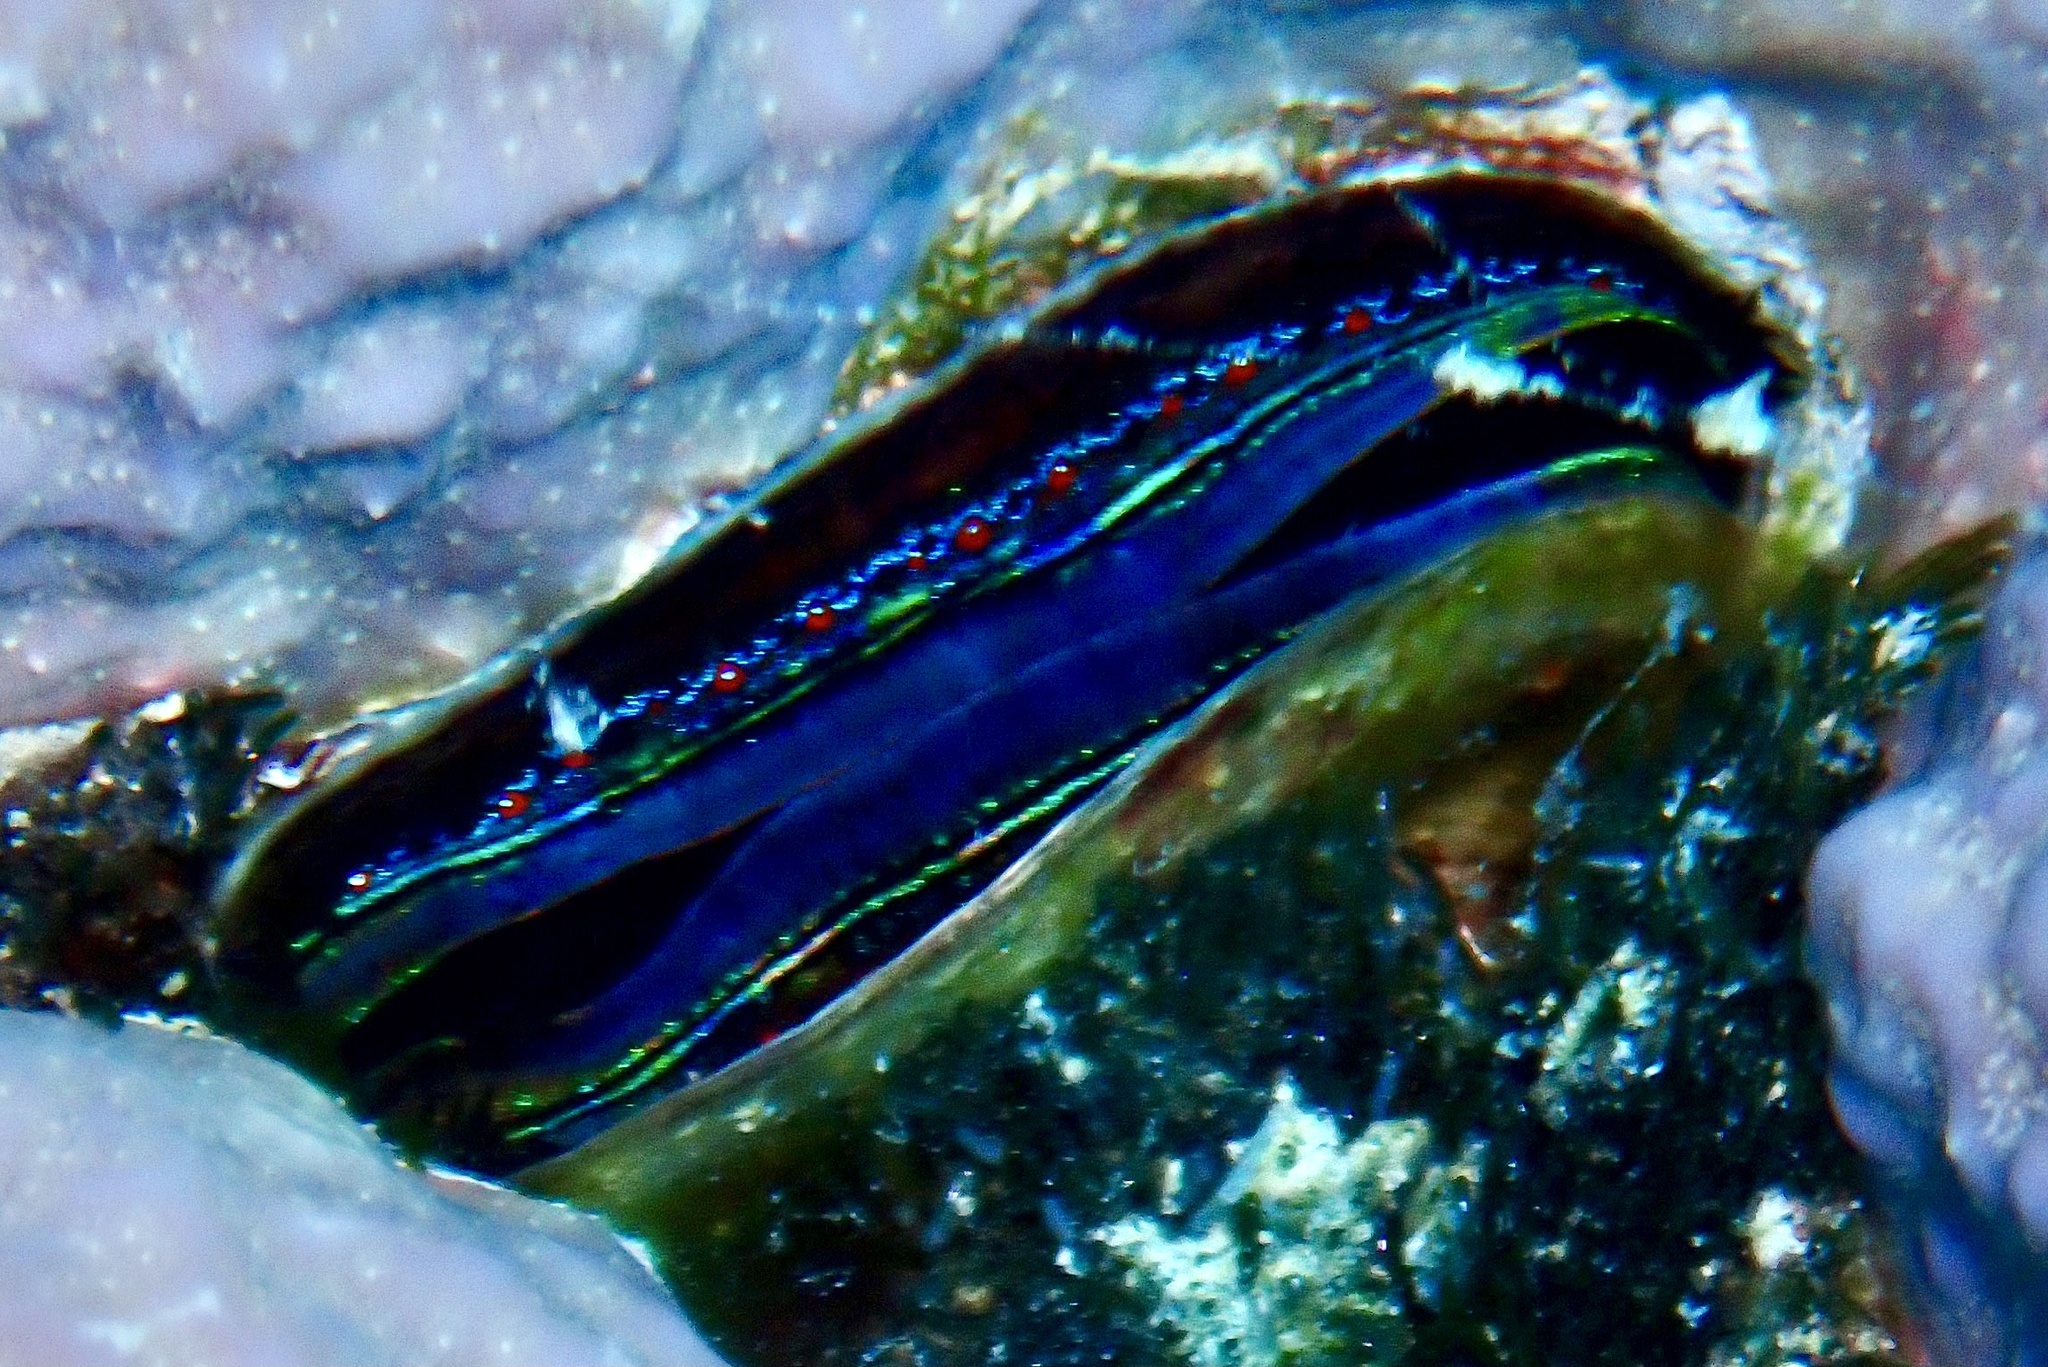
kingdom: Animalia
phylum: Mollusca
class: Bivalvia
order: Pectinida
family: Pectinidae
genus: Pedum
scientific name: Pedum spondyloideum
